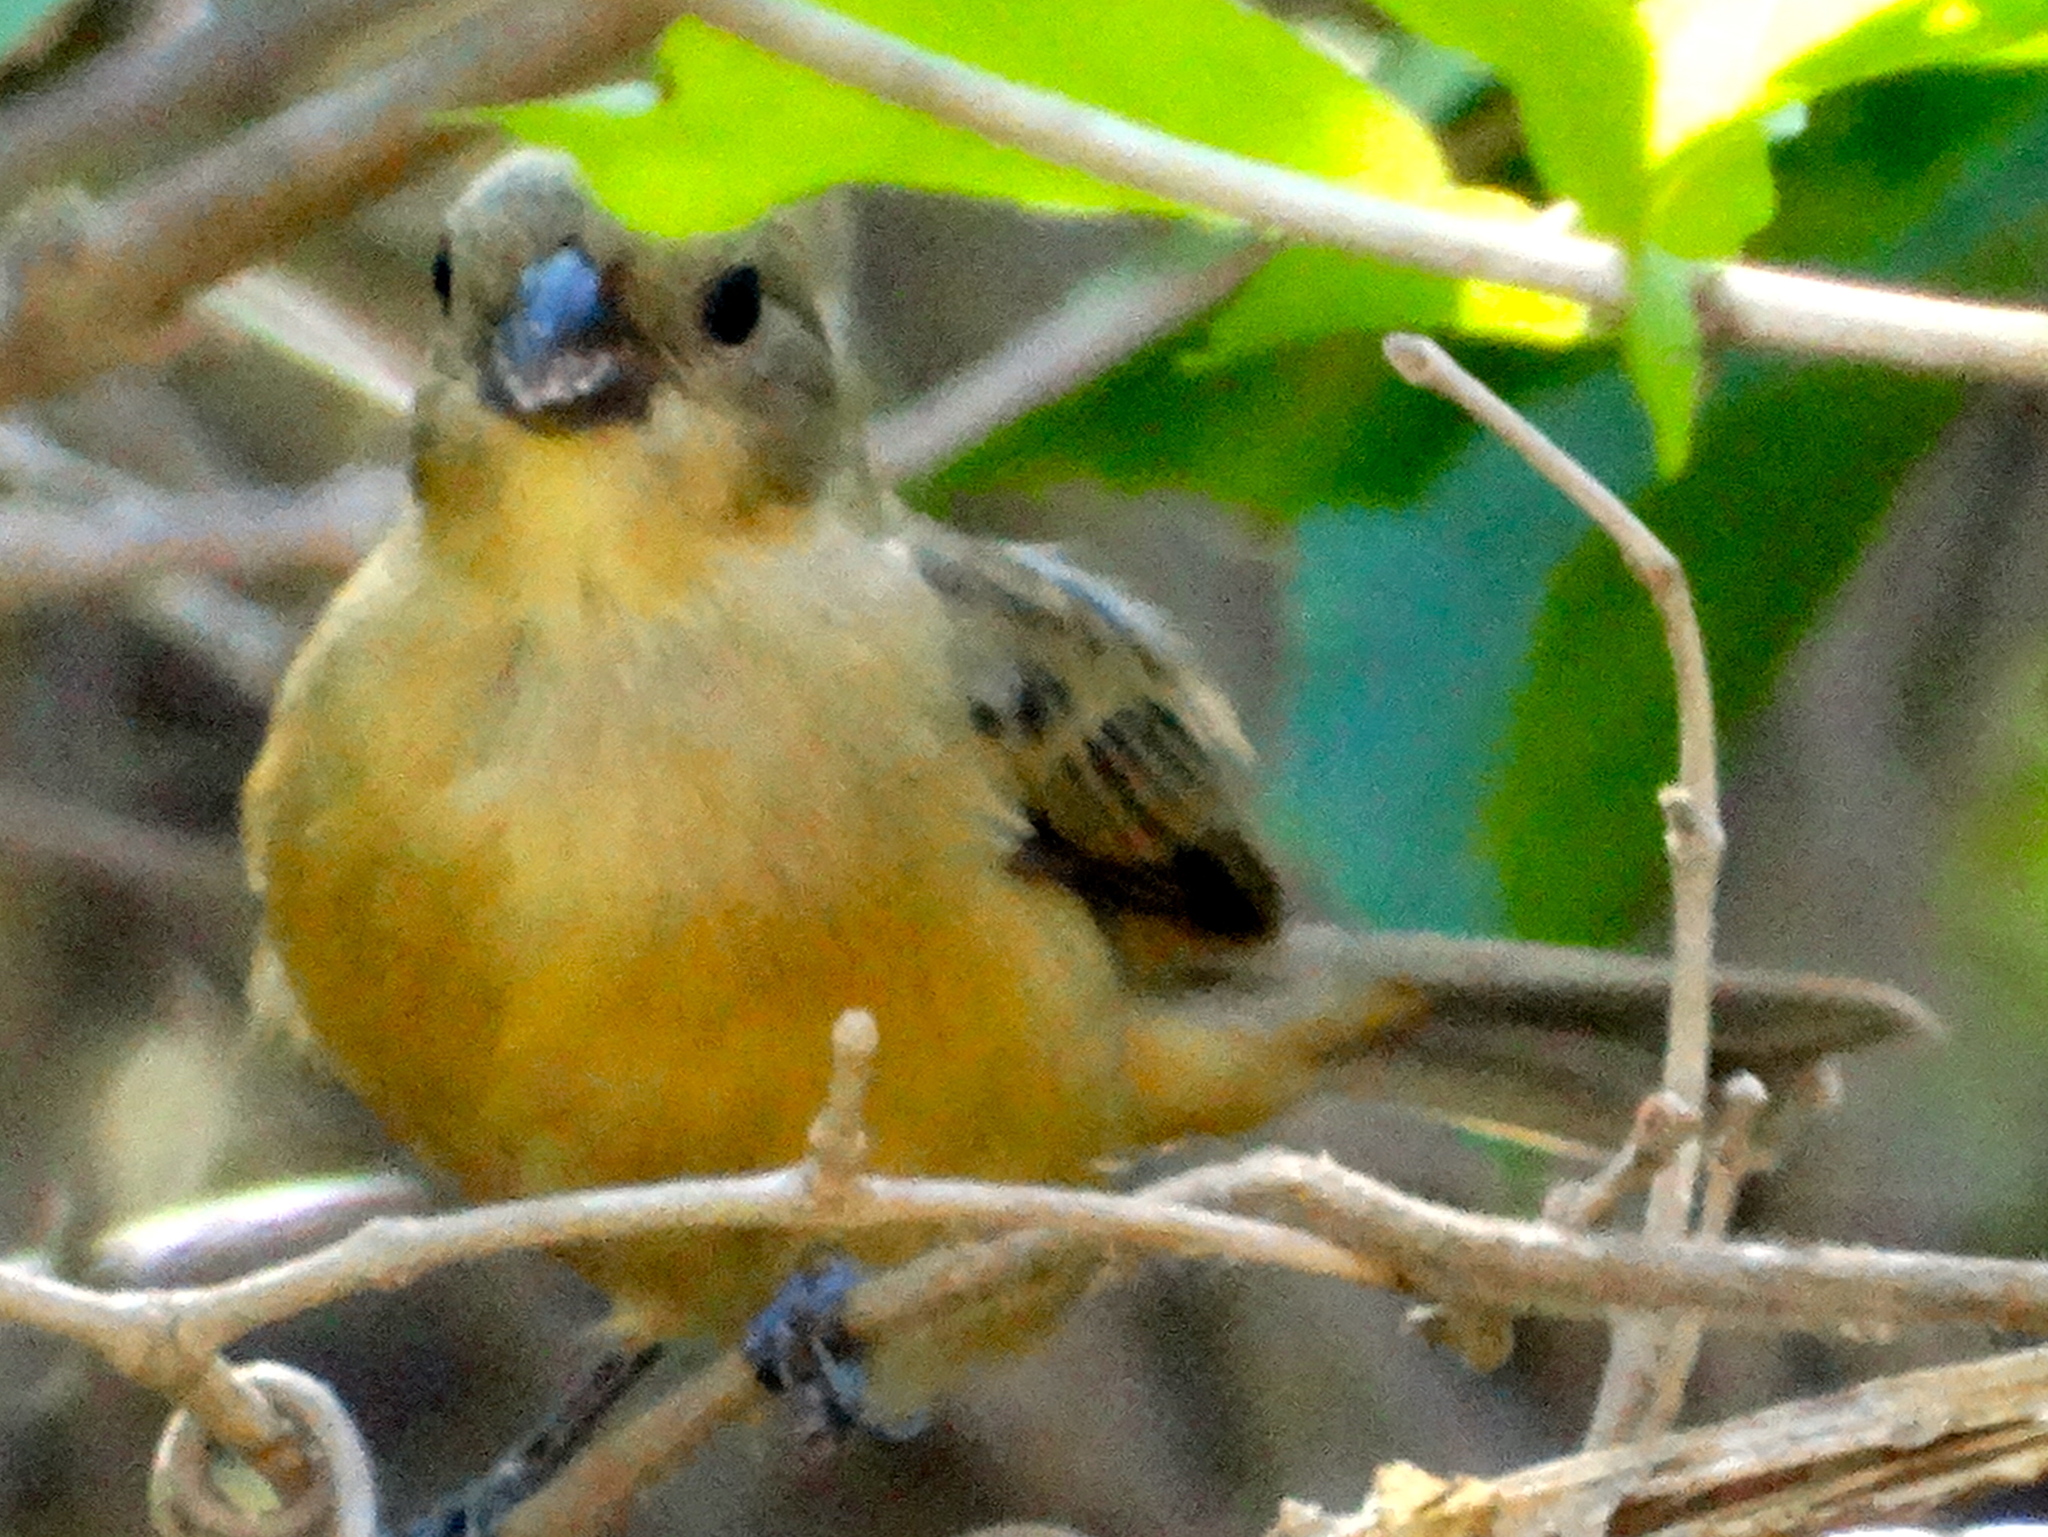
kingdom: Animalia
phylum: Chordata
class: Aves
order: Passeriformes
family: Thraupidae
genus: Sporophila
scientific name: Sporophila torqueola
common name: White-collared seedeater
